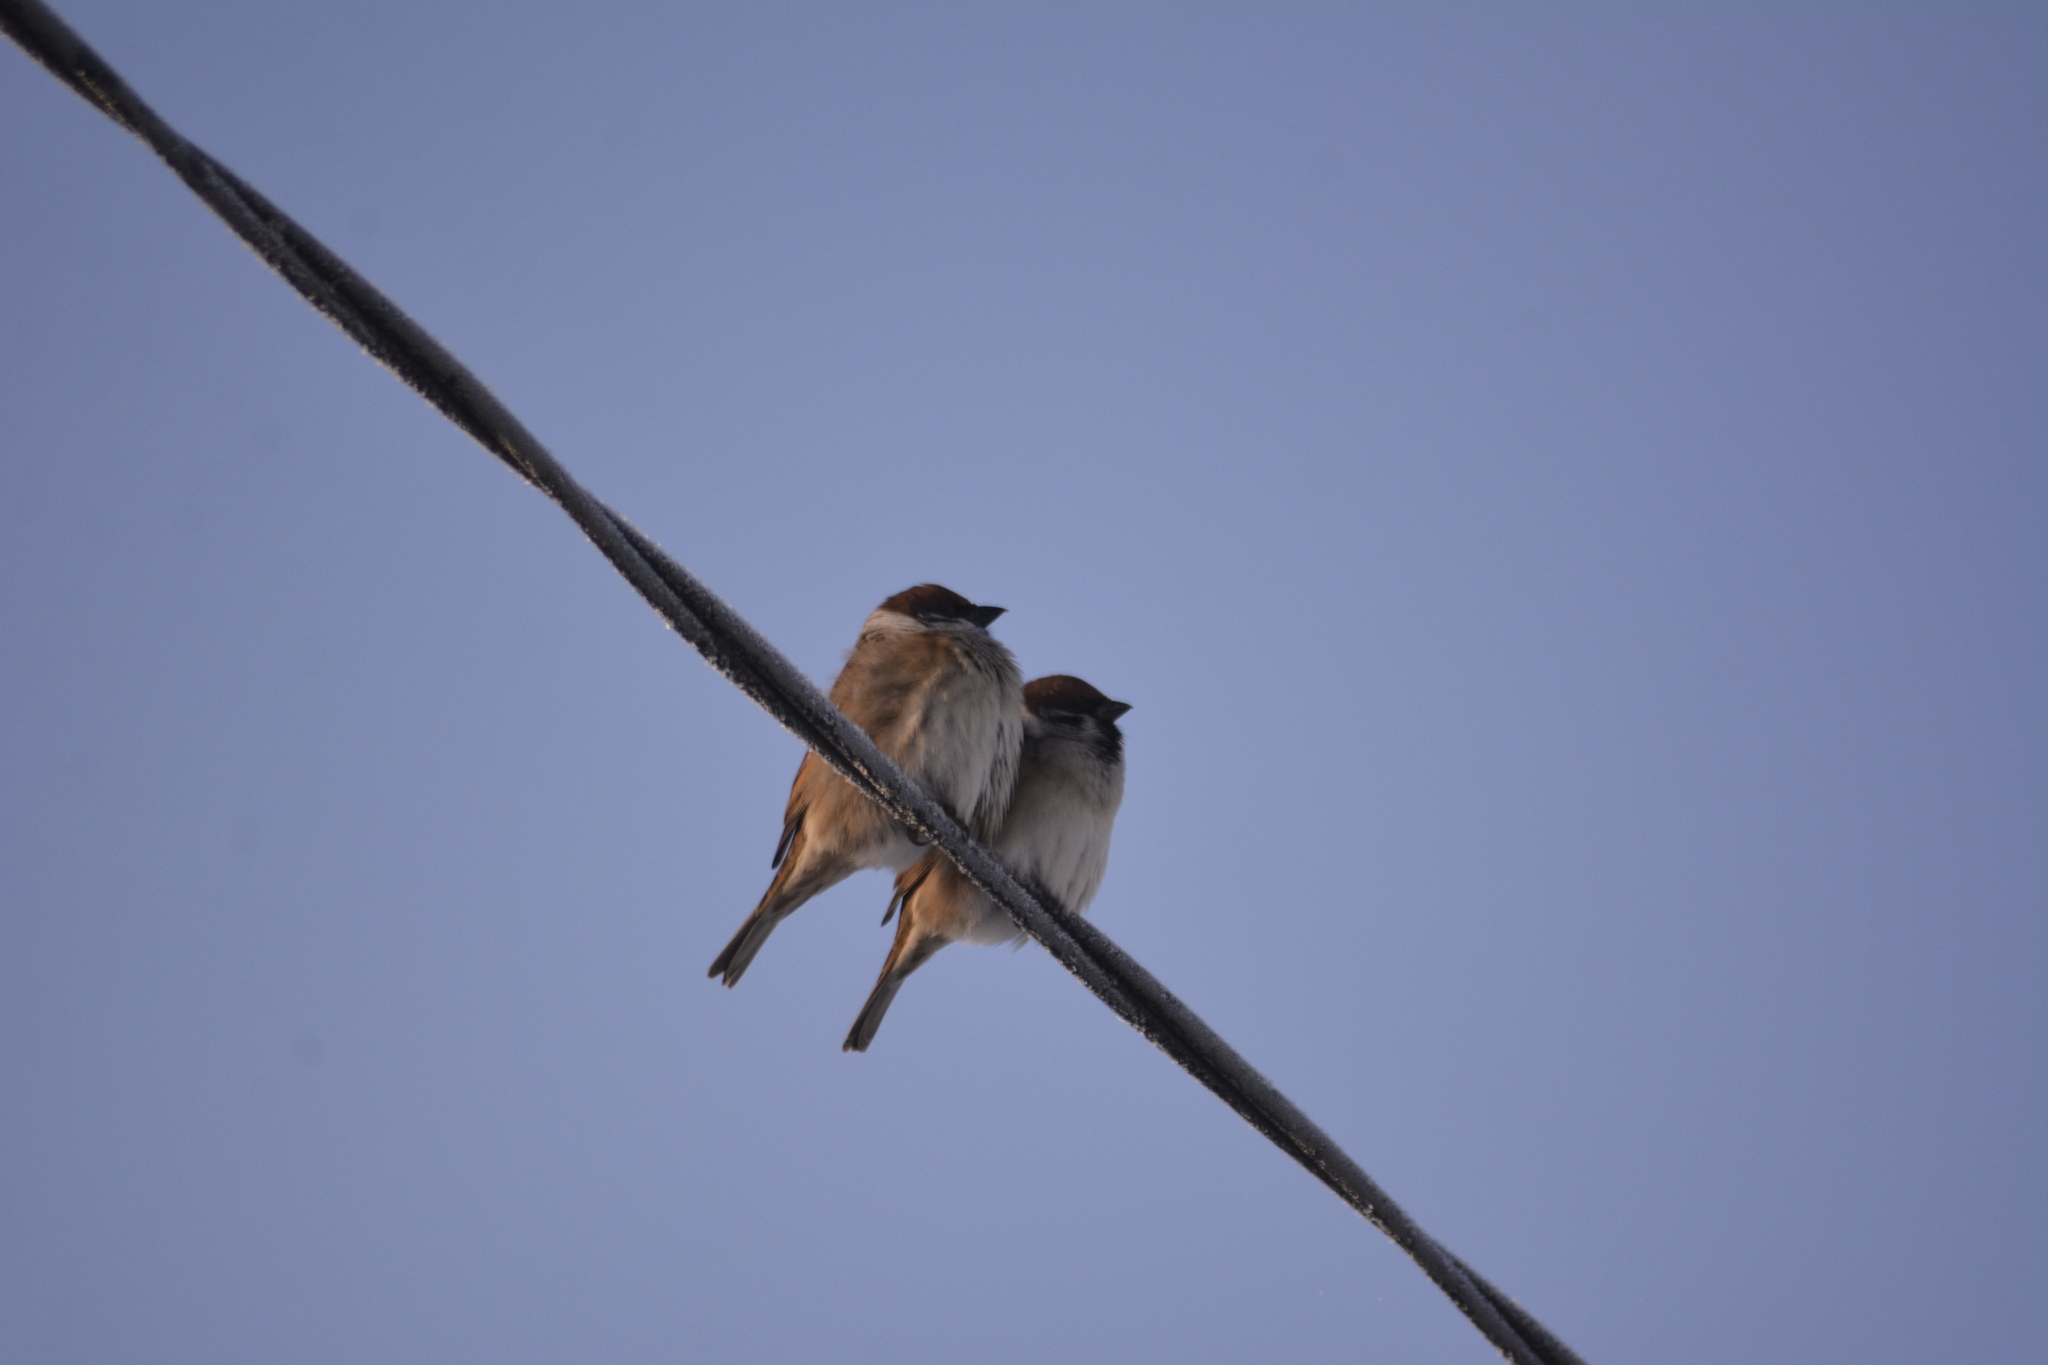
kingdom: Animalia
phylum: Chordata
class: Aves
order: Passeriformes
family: Passeridae
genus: Passer
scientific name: Passer montanus
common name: Eurasian tree sparrow
